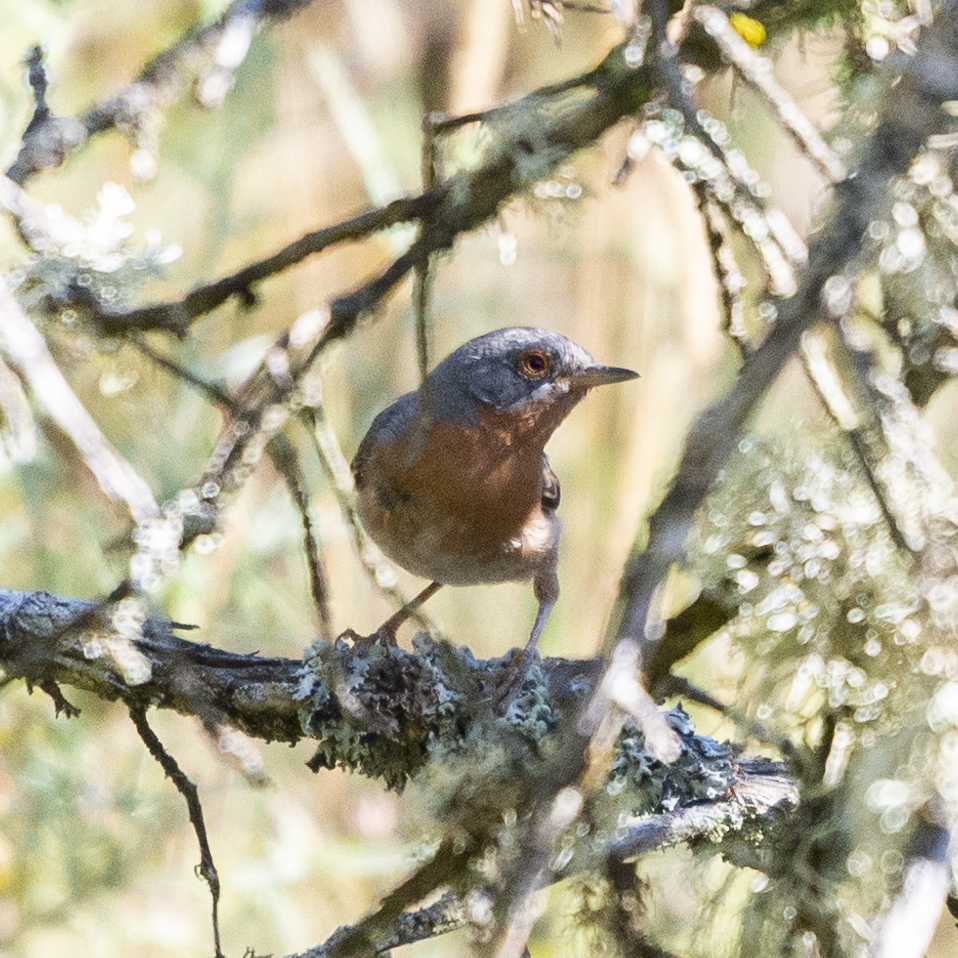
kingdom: Animalia
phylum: Chordata
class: Aves
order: Passeriformes
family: Sylviidae
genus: Curruca
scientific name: Curruca iberiae
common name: Western subalpine warbler
